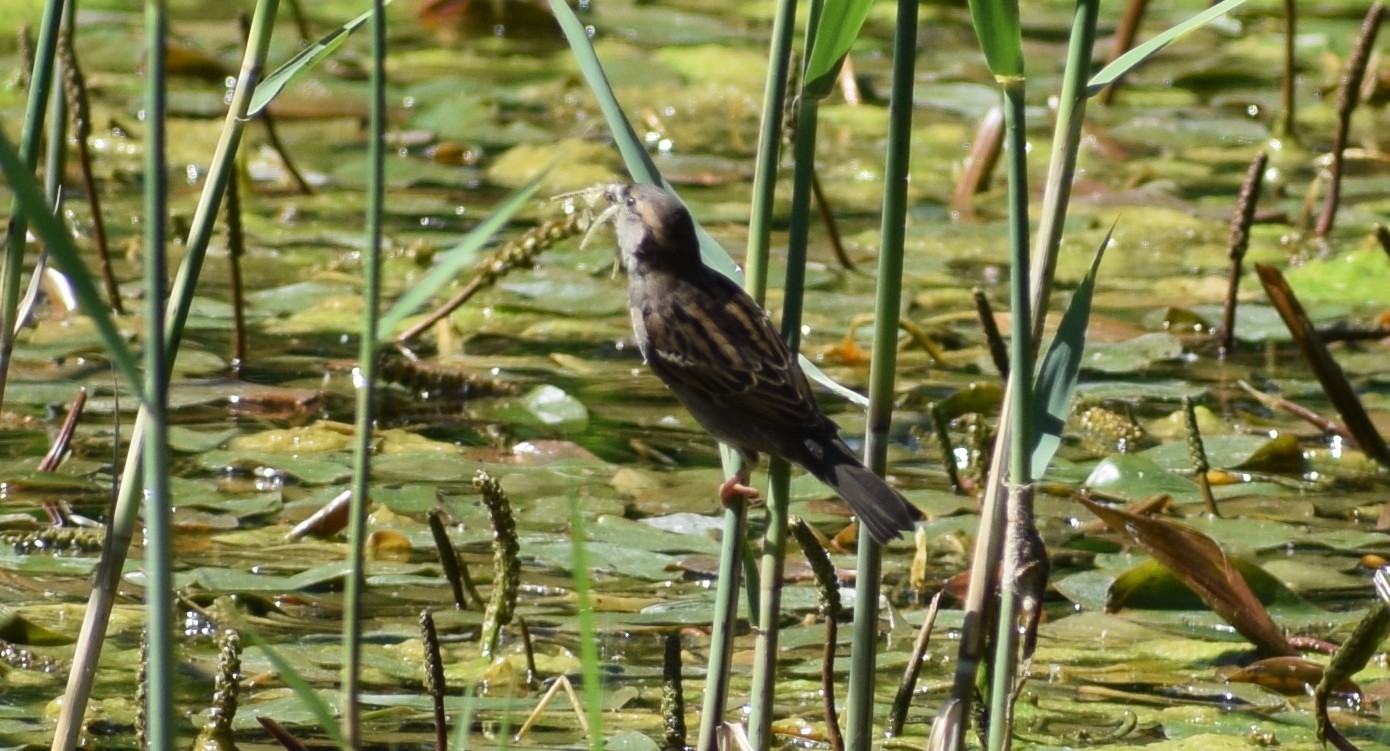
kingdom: Animalia
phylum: Chordata
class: Aves
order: Passeriformes
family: Passeridae
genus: Passer
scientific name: Passer domesticus
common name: House sparrow
